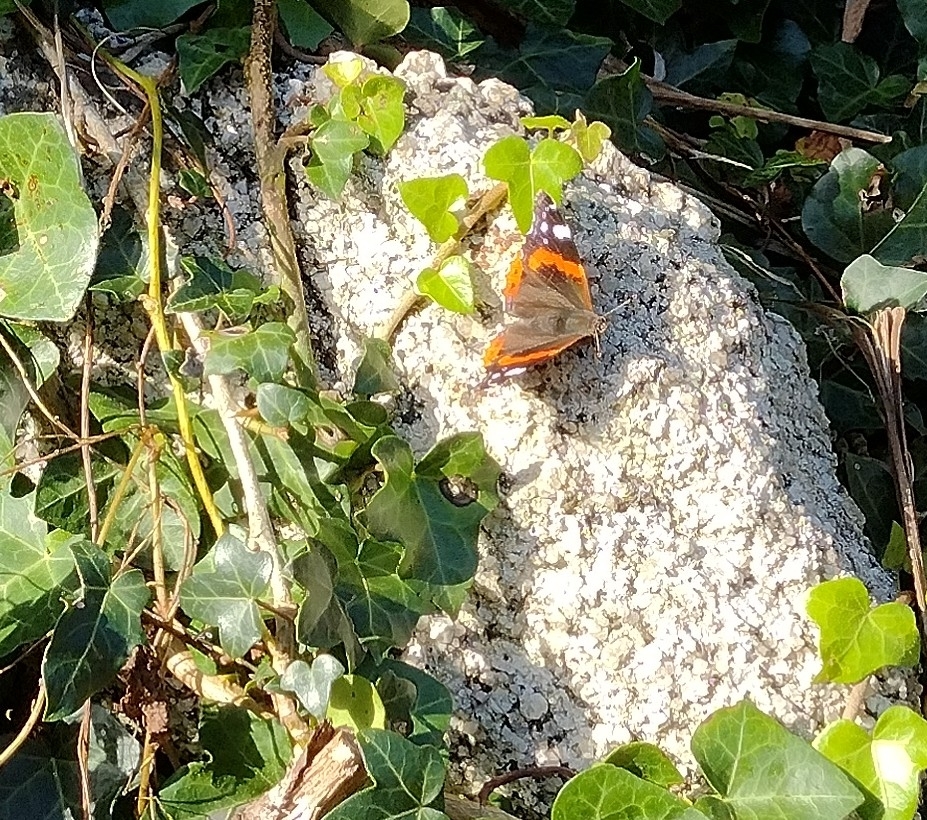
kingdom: Animalia
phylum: Arthropoda
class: Insecta
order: Lepidoptera
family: Nymphalidae
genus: Vanessa
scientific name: Vanessa atalanta
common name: Red admiral
